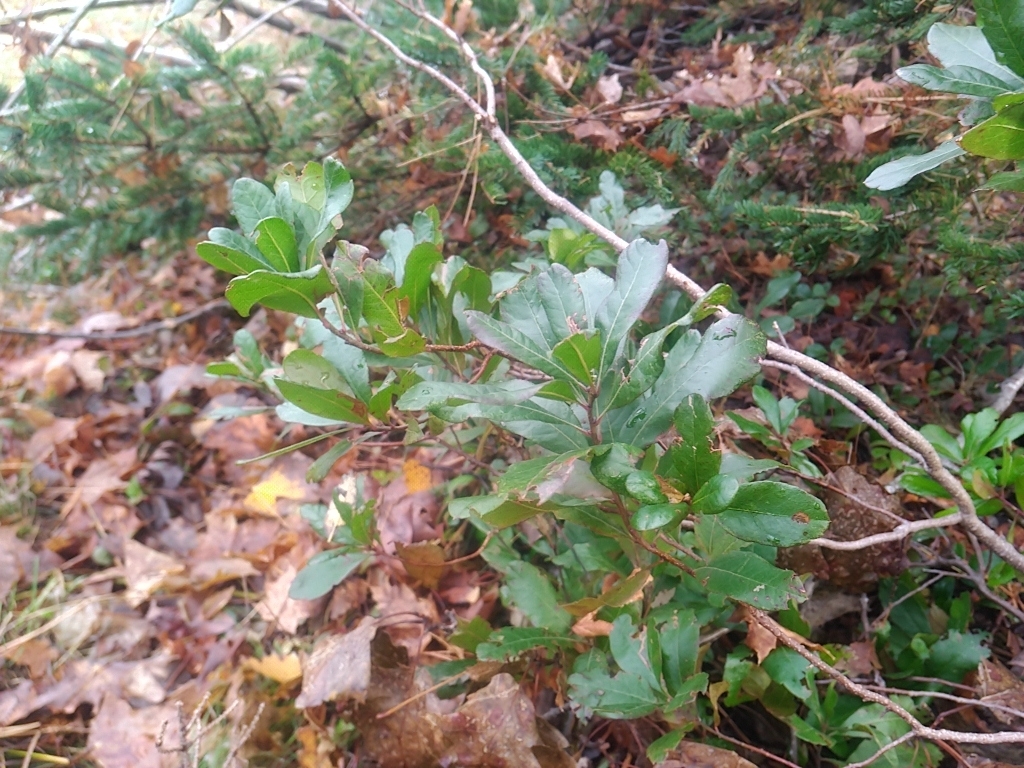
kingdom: Plantae
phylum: Tracheophyta
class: Magnoliopsida
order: Fagales
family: Myricaceae
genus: Morella
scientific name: Morella pensylvanica
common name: Northern bayberry
